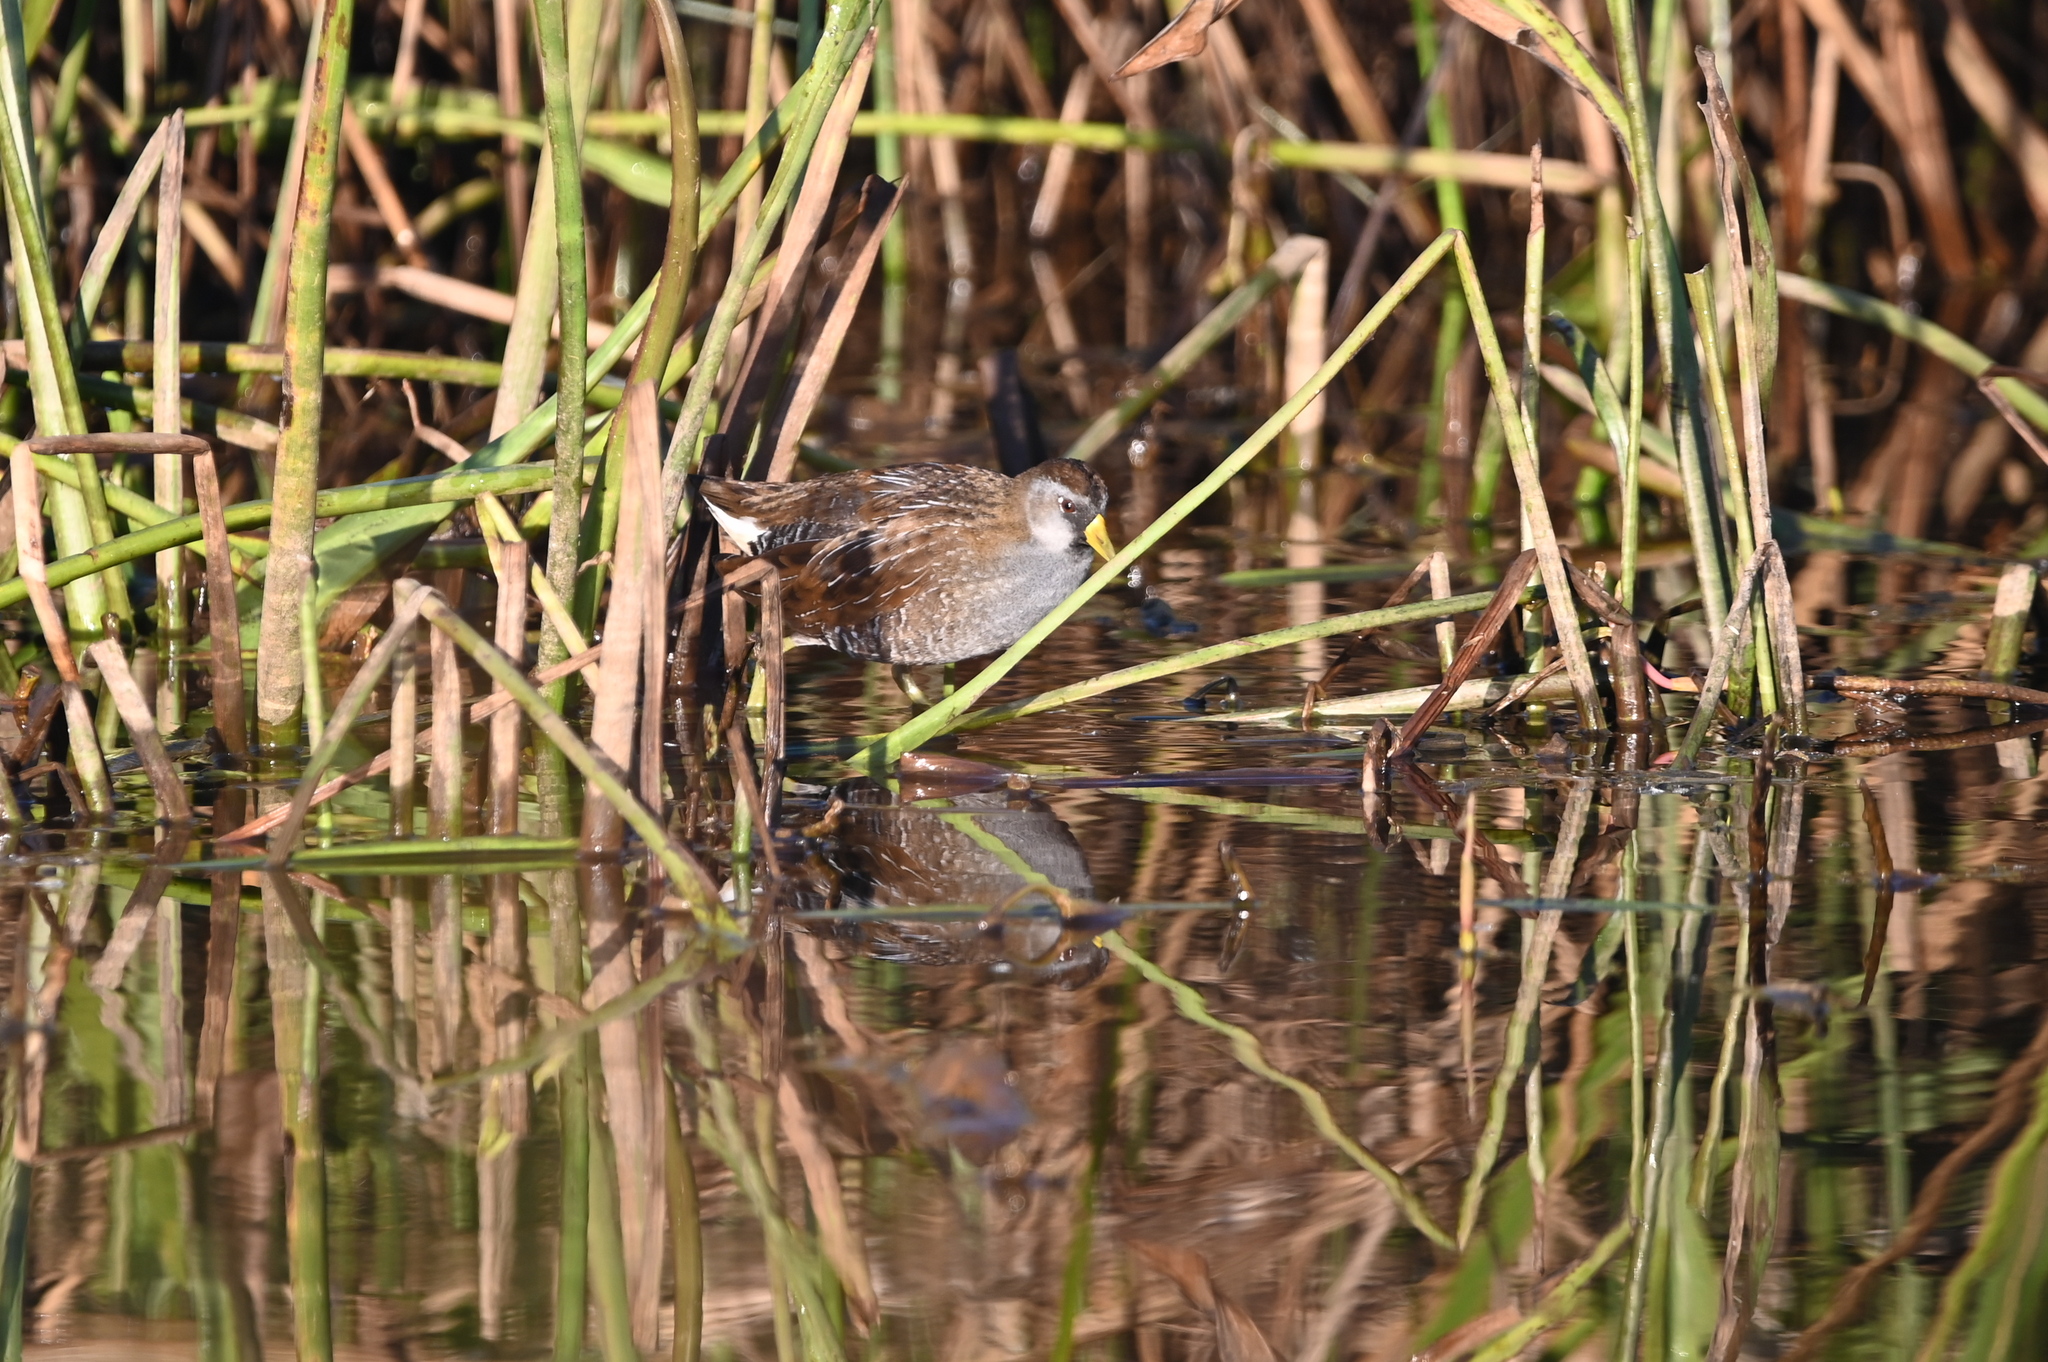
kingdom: Animalia
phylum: Chordata
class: Aves
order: Gruiformes
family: Rallidae
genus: Porzana
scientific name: Porzana carolina
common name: Sora
